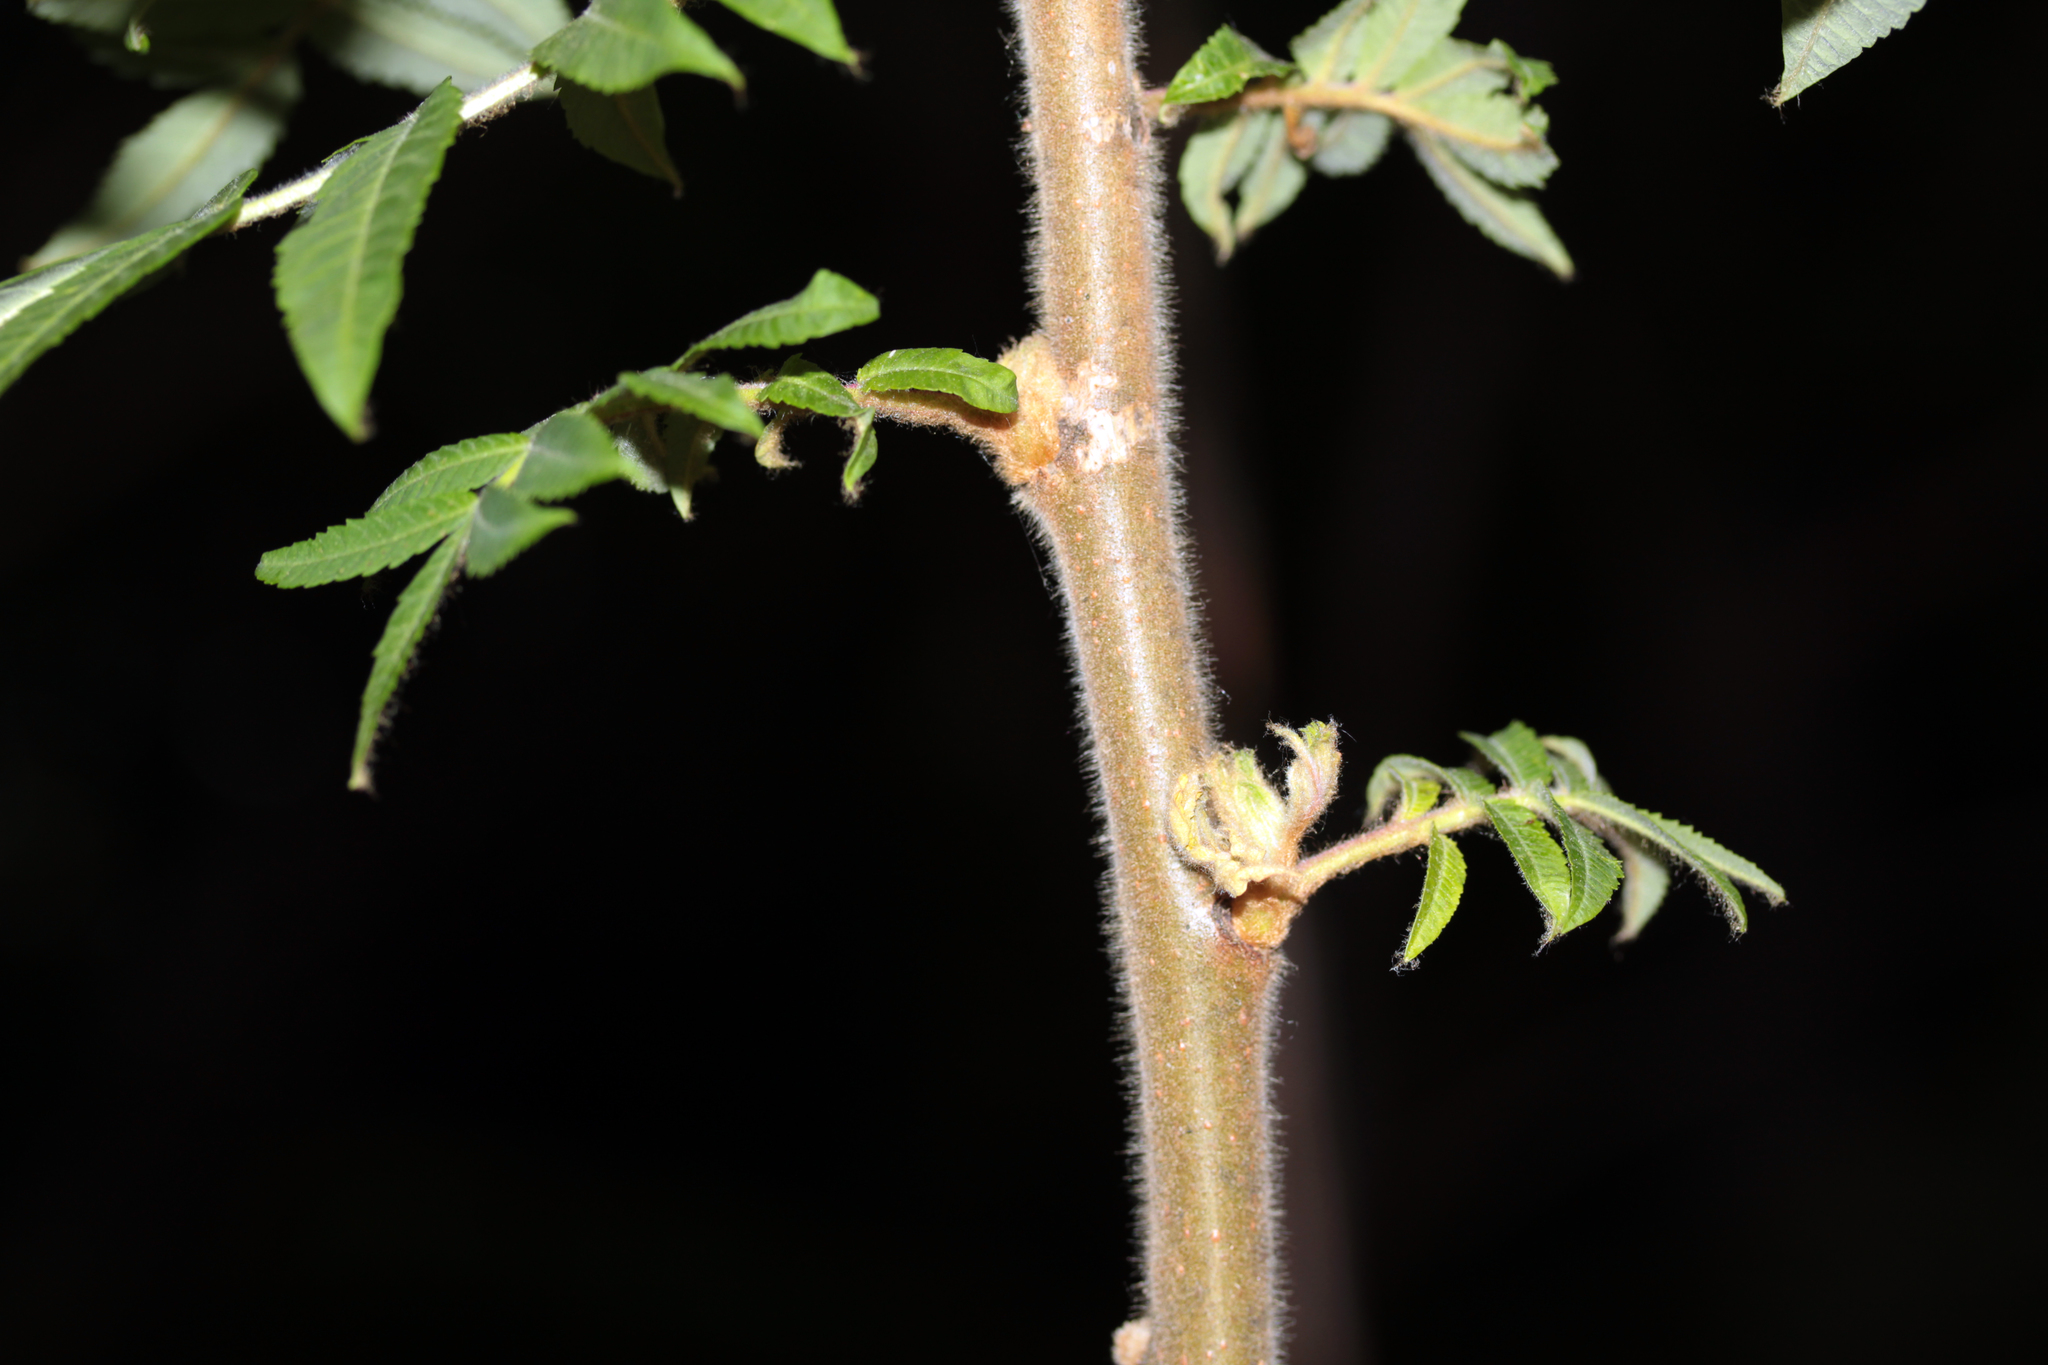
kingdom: Plantae
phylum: Tracheophyta
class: Magnoliopsida
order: Sapindales
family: Anacardiaceae
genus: Rhus
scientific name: Rhus typhina
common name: Staghorn sumac
